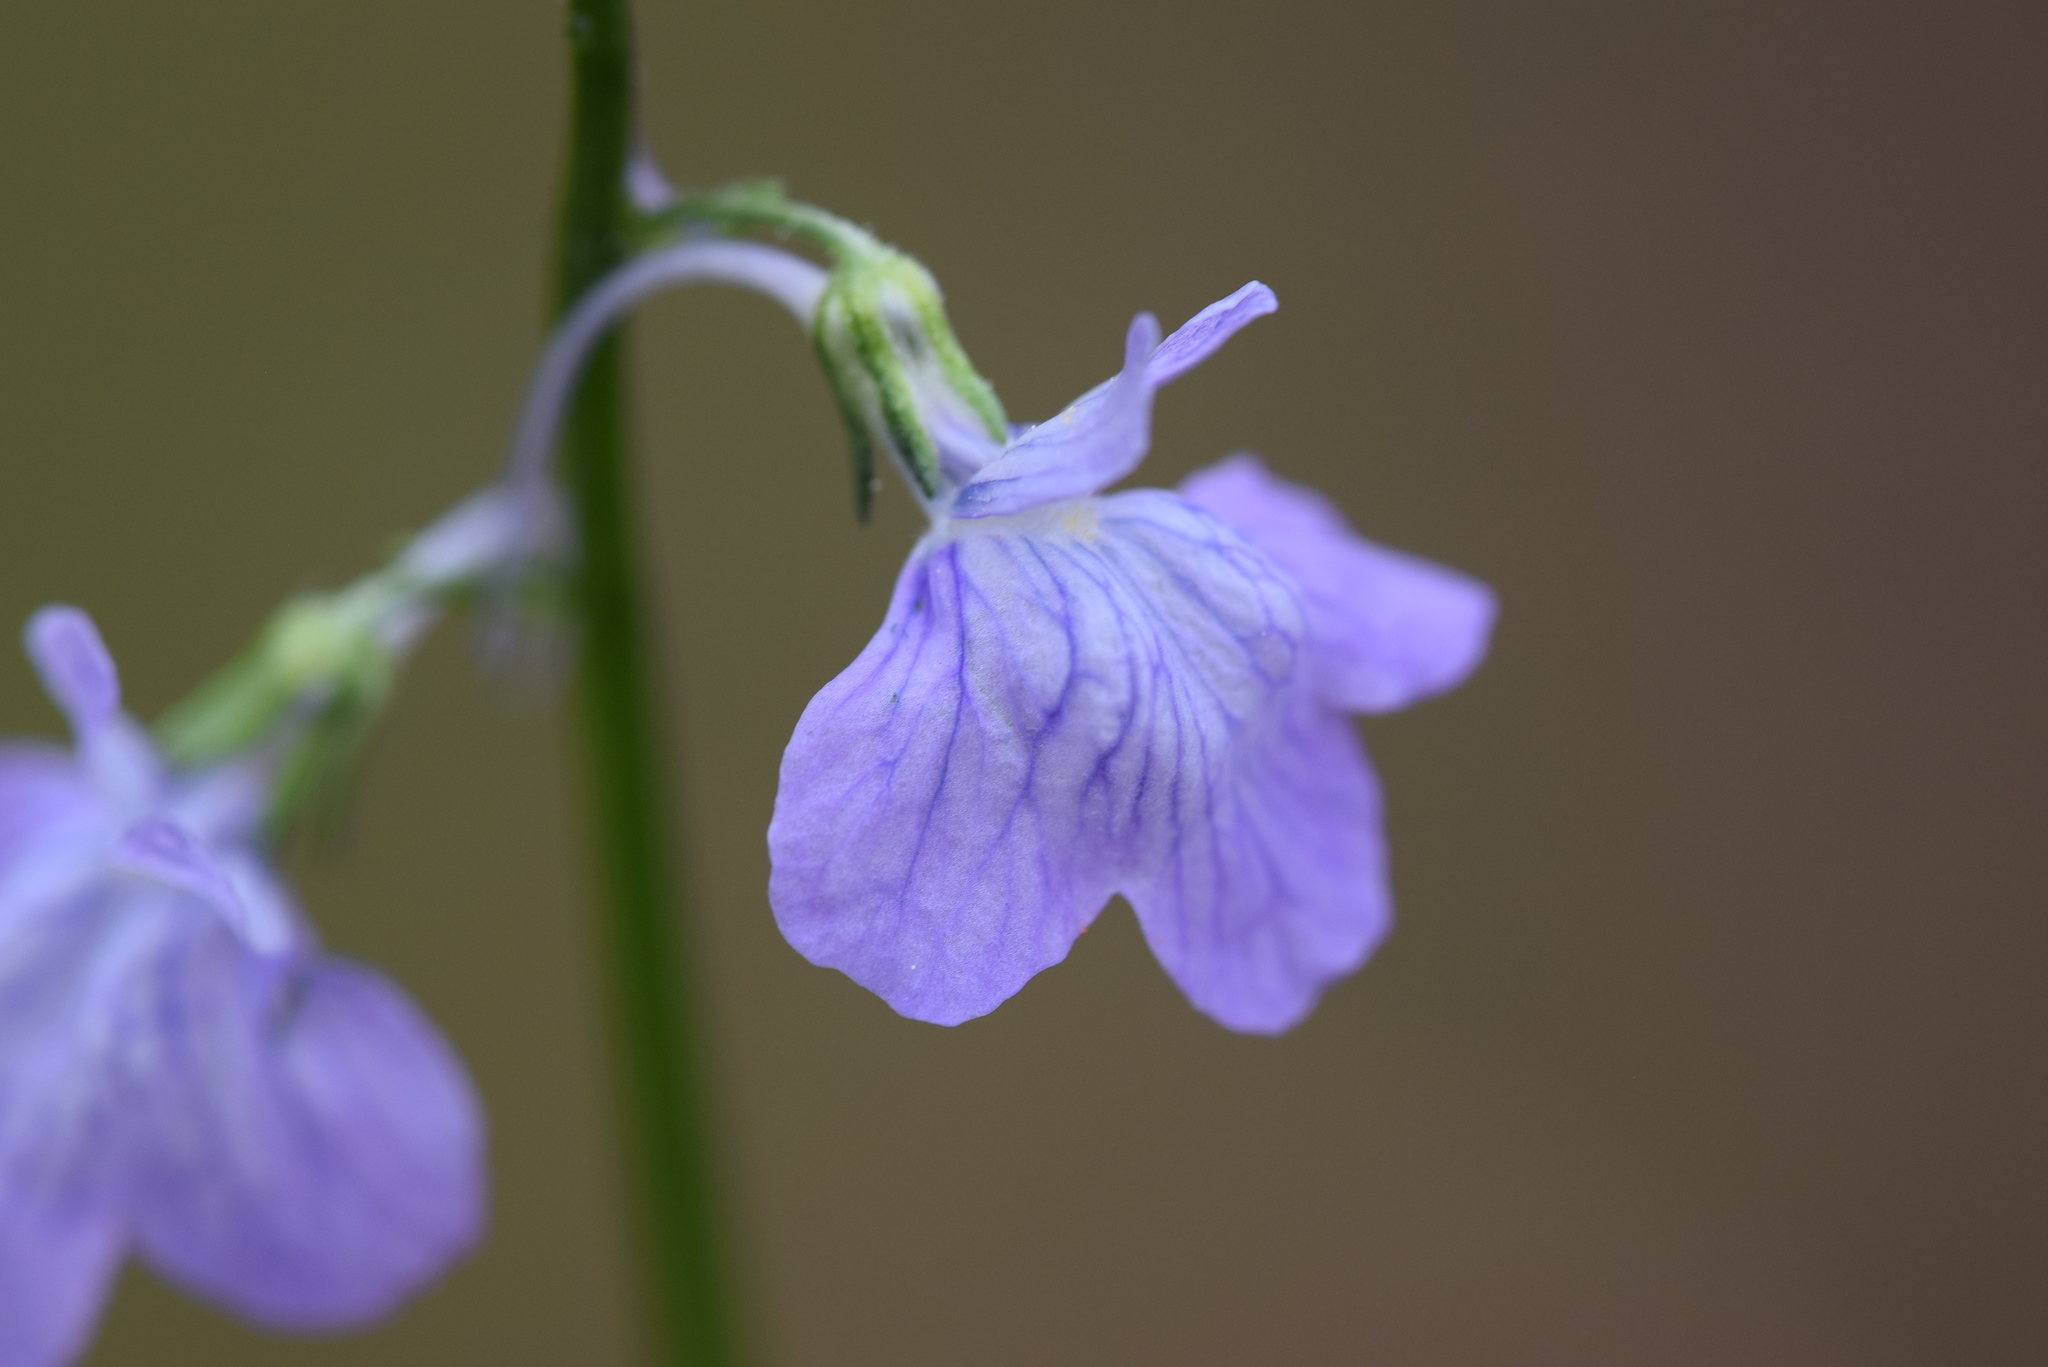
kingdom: Plantae
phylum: Tracheophyta
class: Magnoliopsida
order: Lamiales
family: Plantaginaceae
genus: Nuttallanthus
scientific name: Nuttallanthus texanus
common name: Texas toadflax
